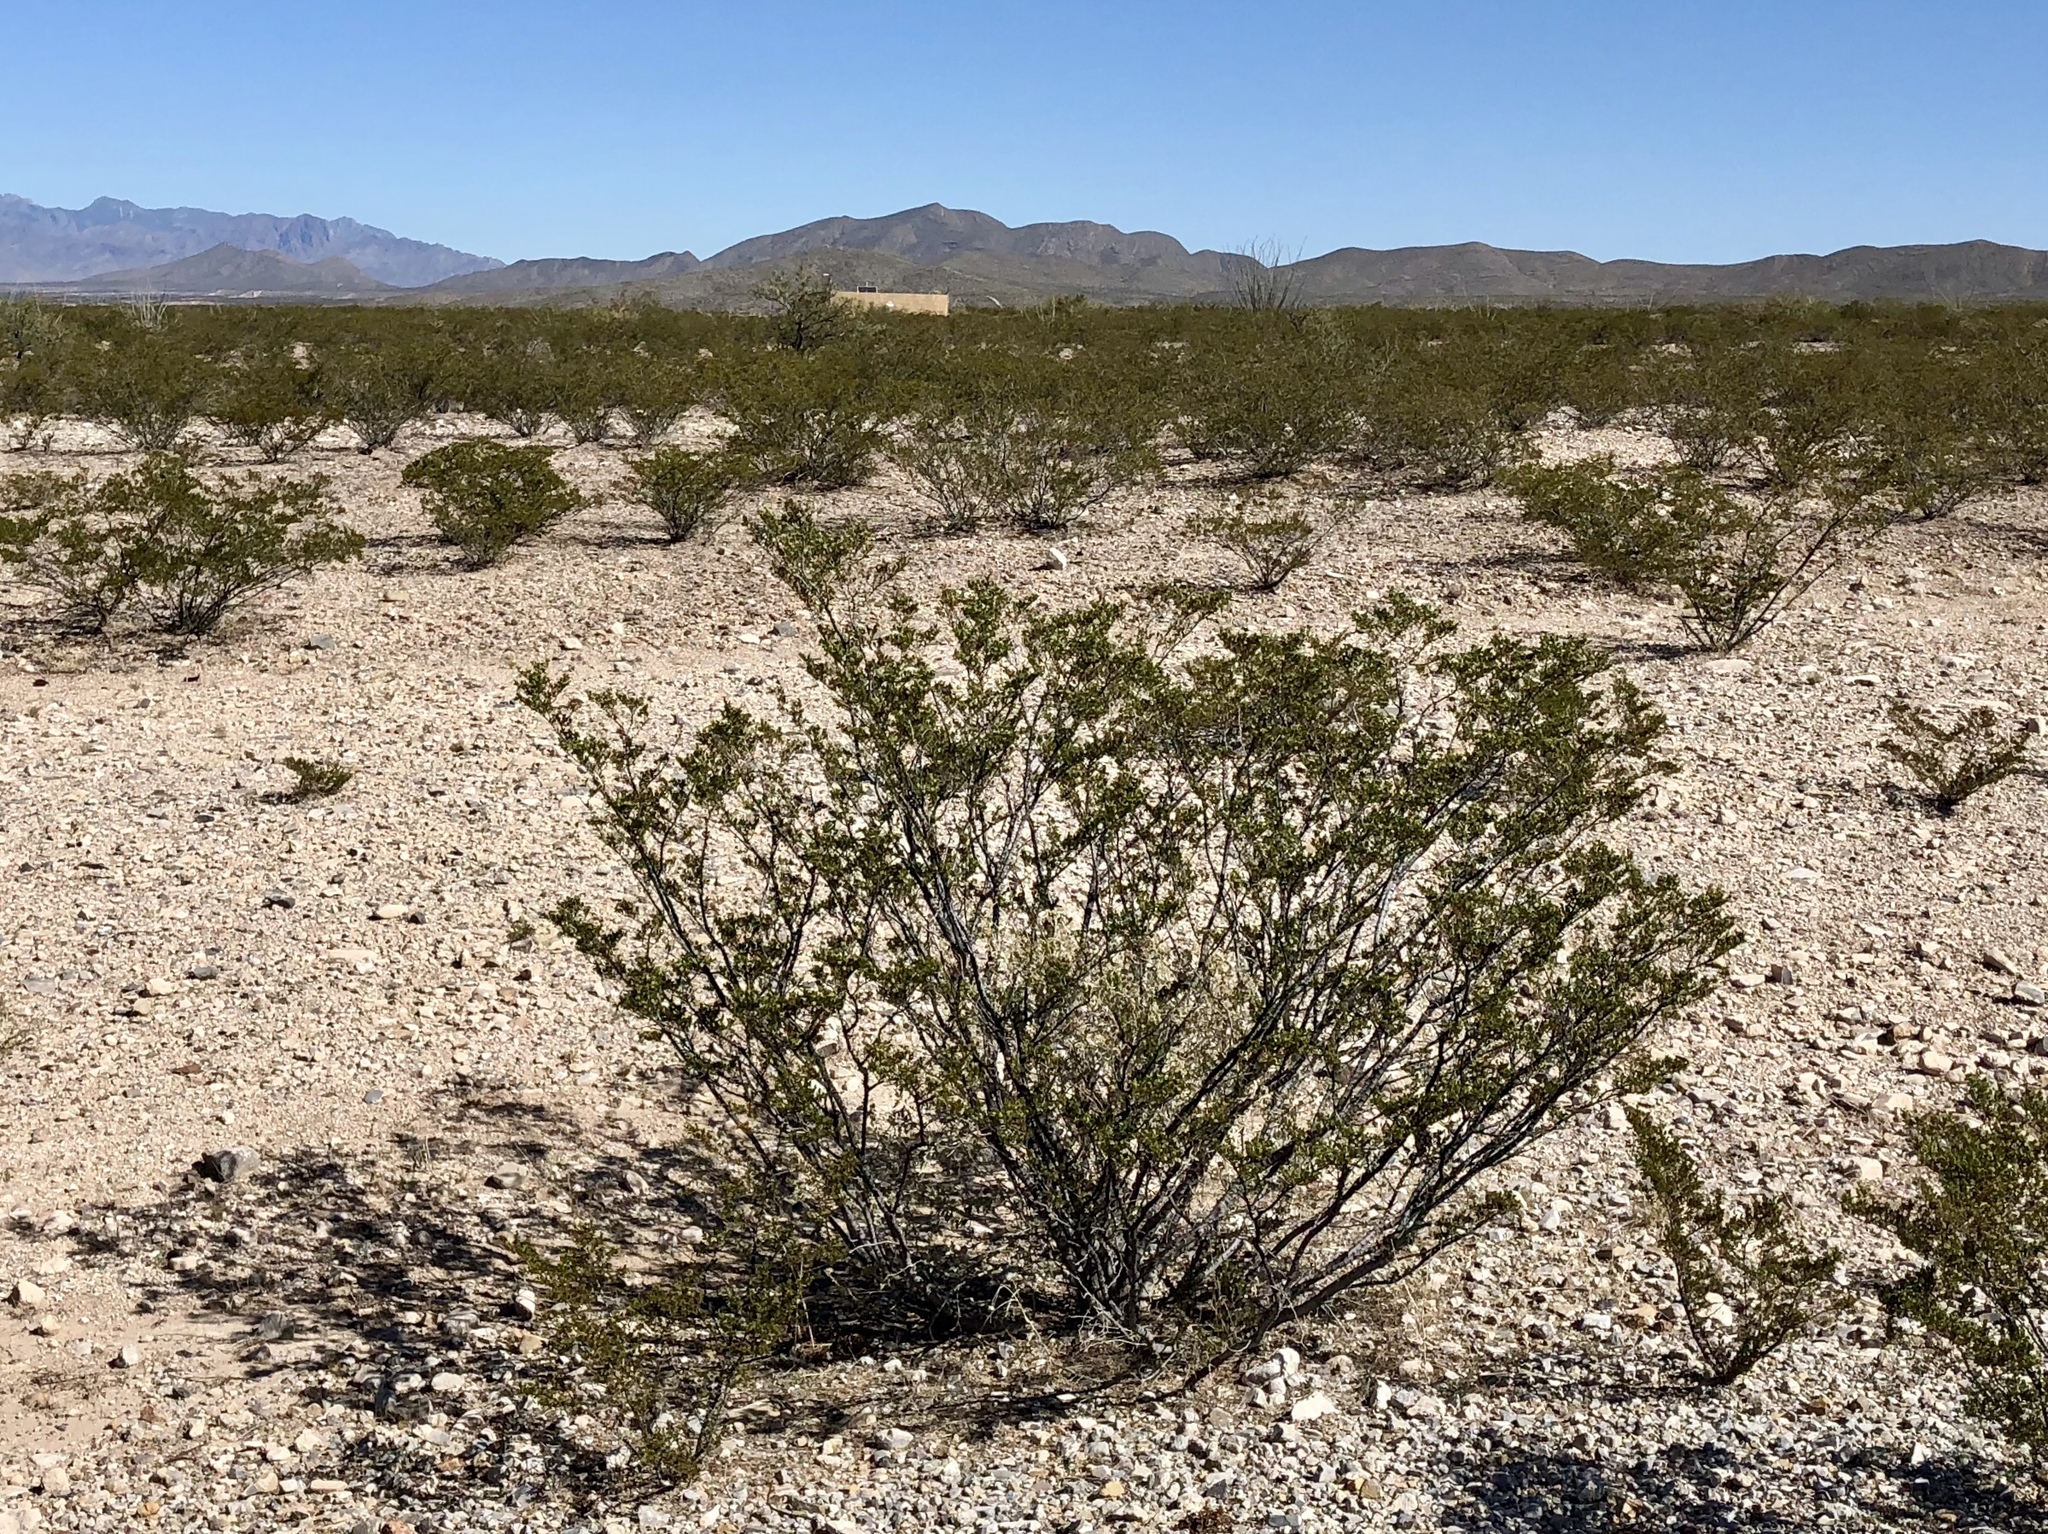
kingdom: Plantae
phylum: Tracheophyta
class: Magnoliopsida
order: Zygophyllales
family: Zygophyllaceae
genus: Larrea
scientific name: Larrea tridentata
